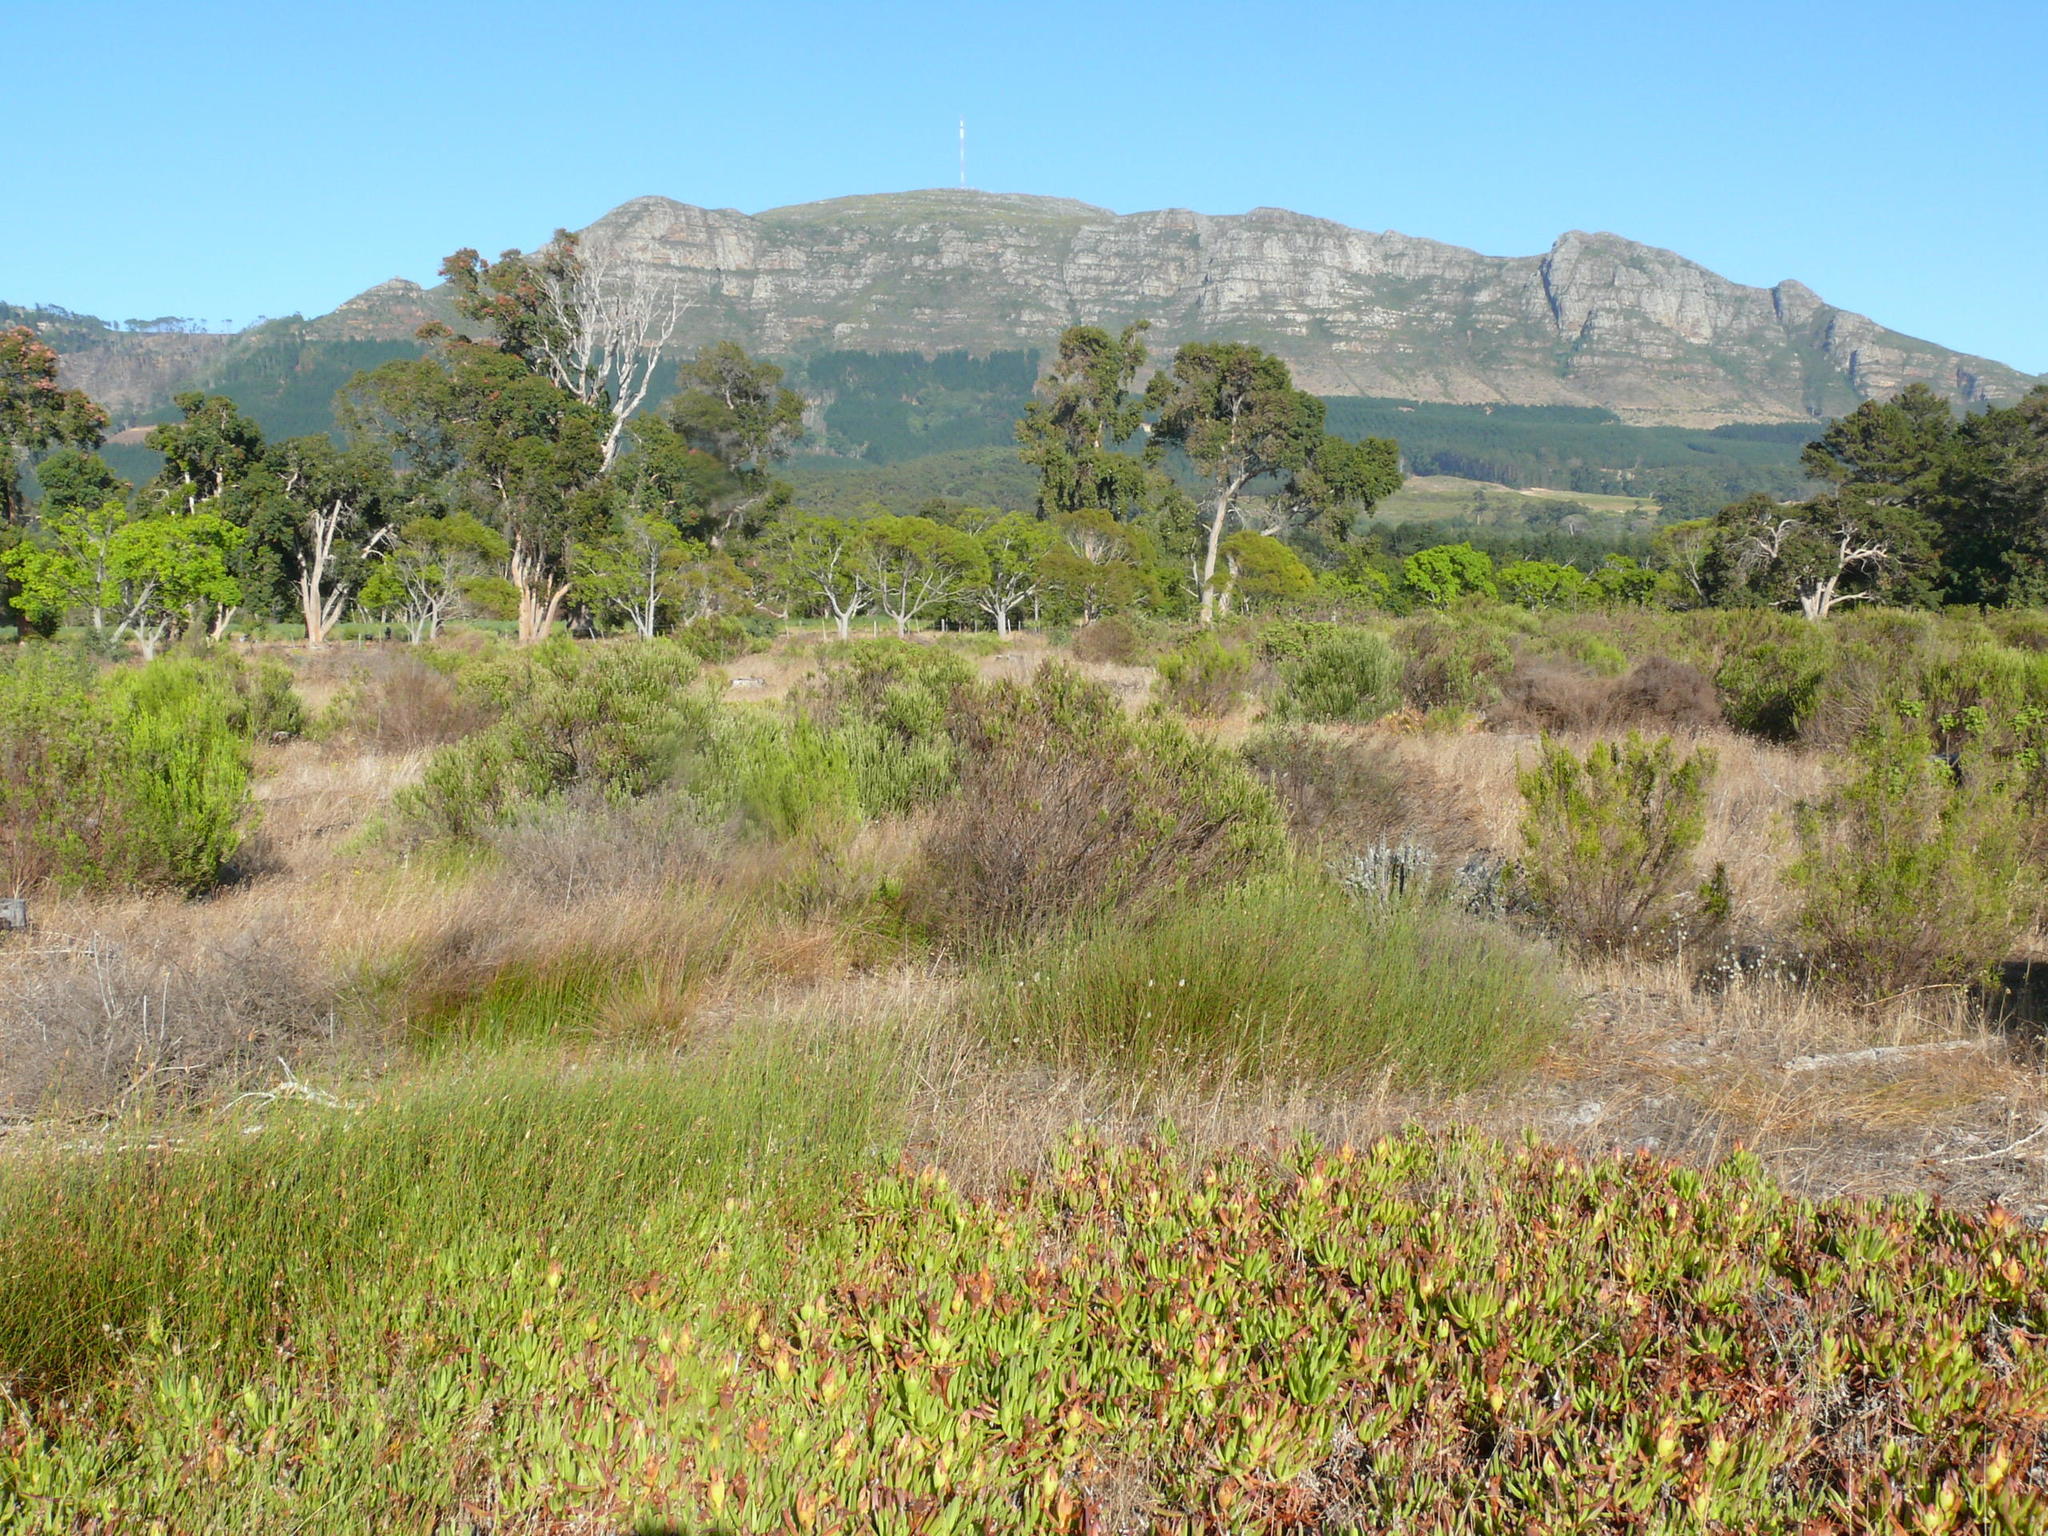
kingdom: Plantae
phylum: Tracheophyta
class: Liliopsida
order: Poales
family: Restionaceae
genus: Willdenowia
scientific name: Willdenowia sulcata
